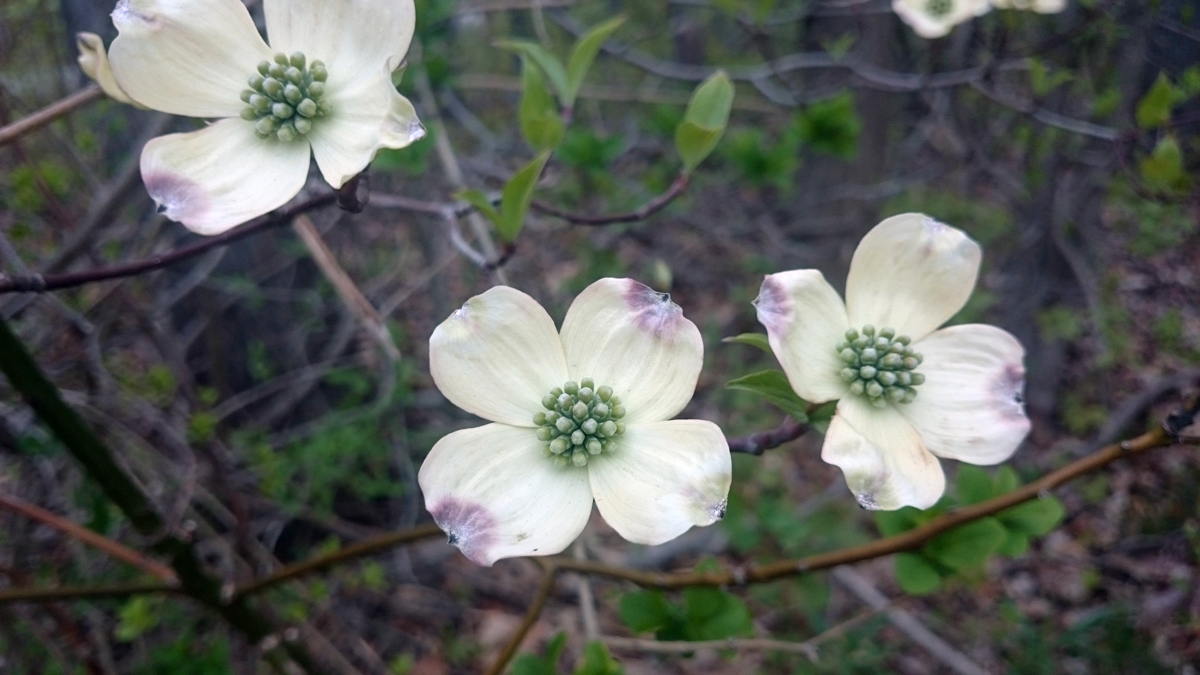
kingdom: Plantae
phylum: Tracheophyta
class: Magnoliopsida
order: Cornales
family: Cornaceae
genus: Cornus
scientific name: Cornus florida
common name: Flowering dogwood
